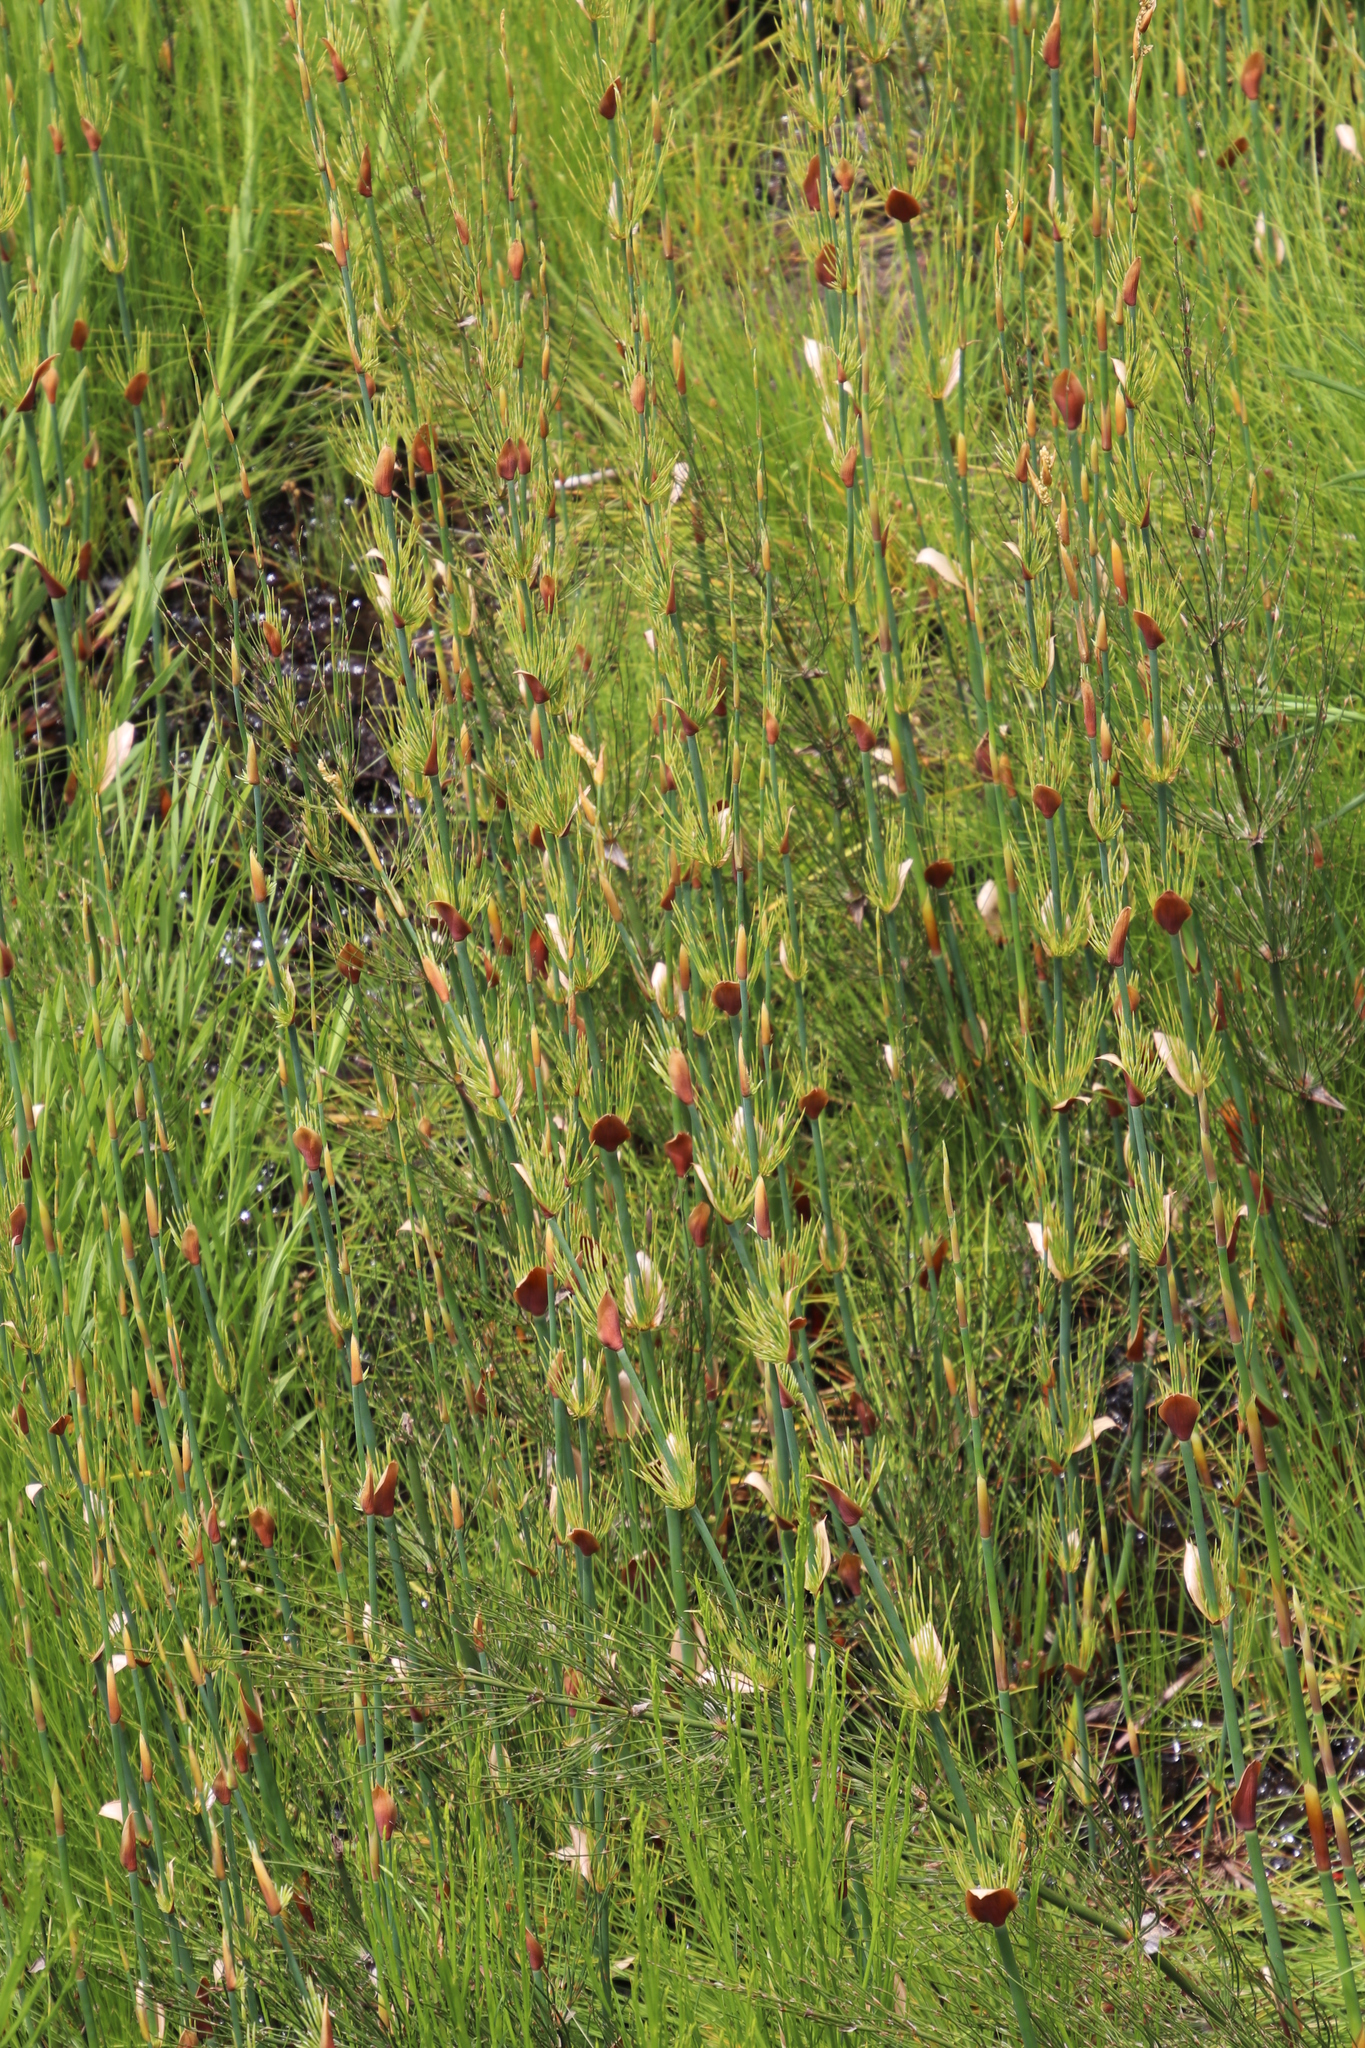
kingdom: Plantae
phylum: Tracheophyta
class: Liliopsida
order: Poales
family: Restionaceae
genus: Elegia
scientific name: Elegia capensis
